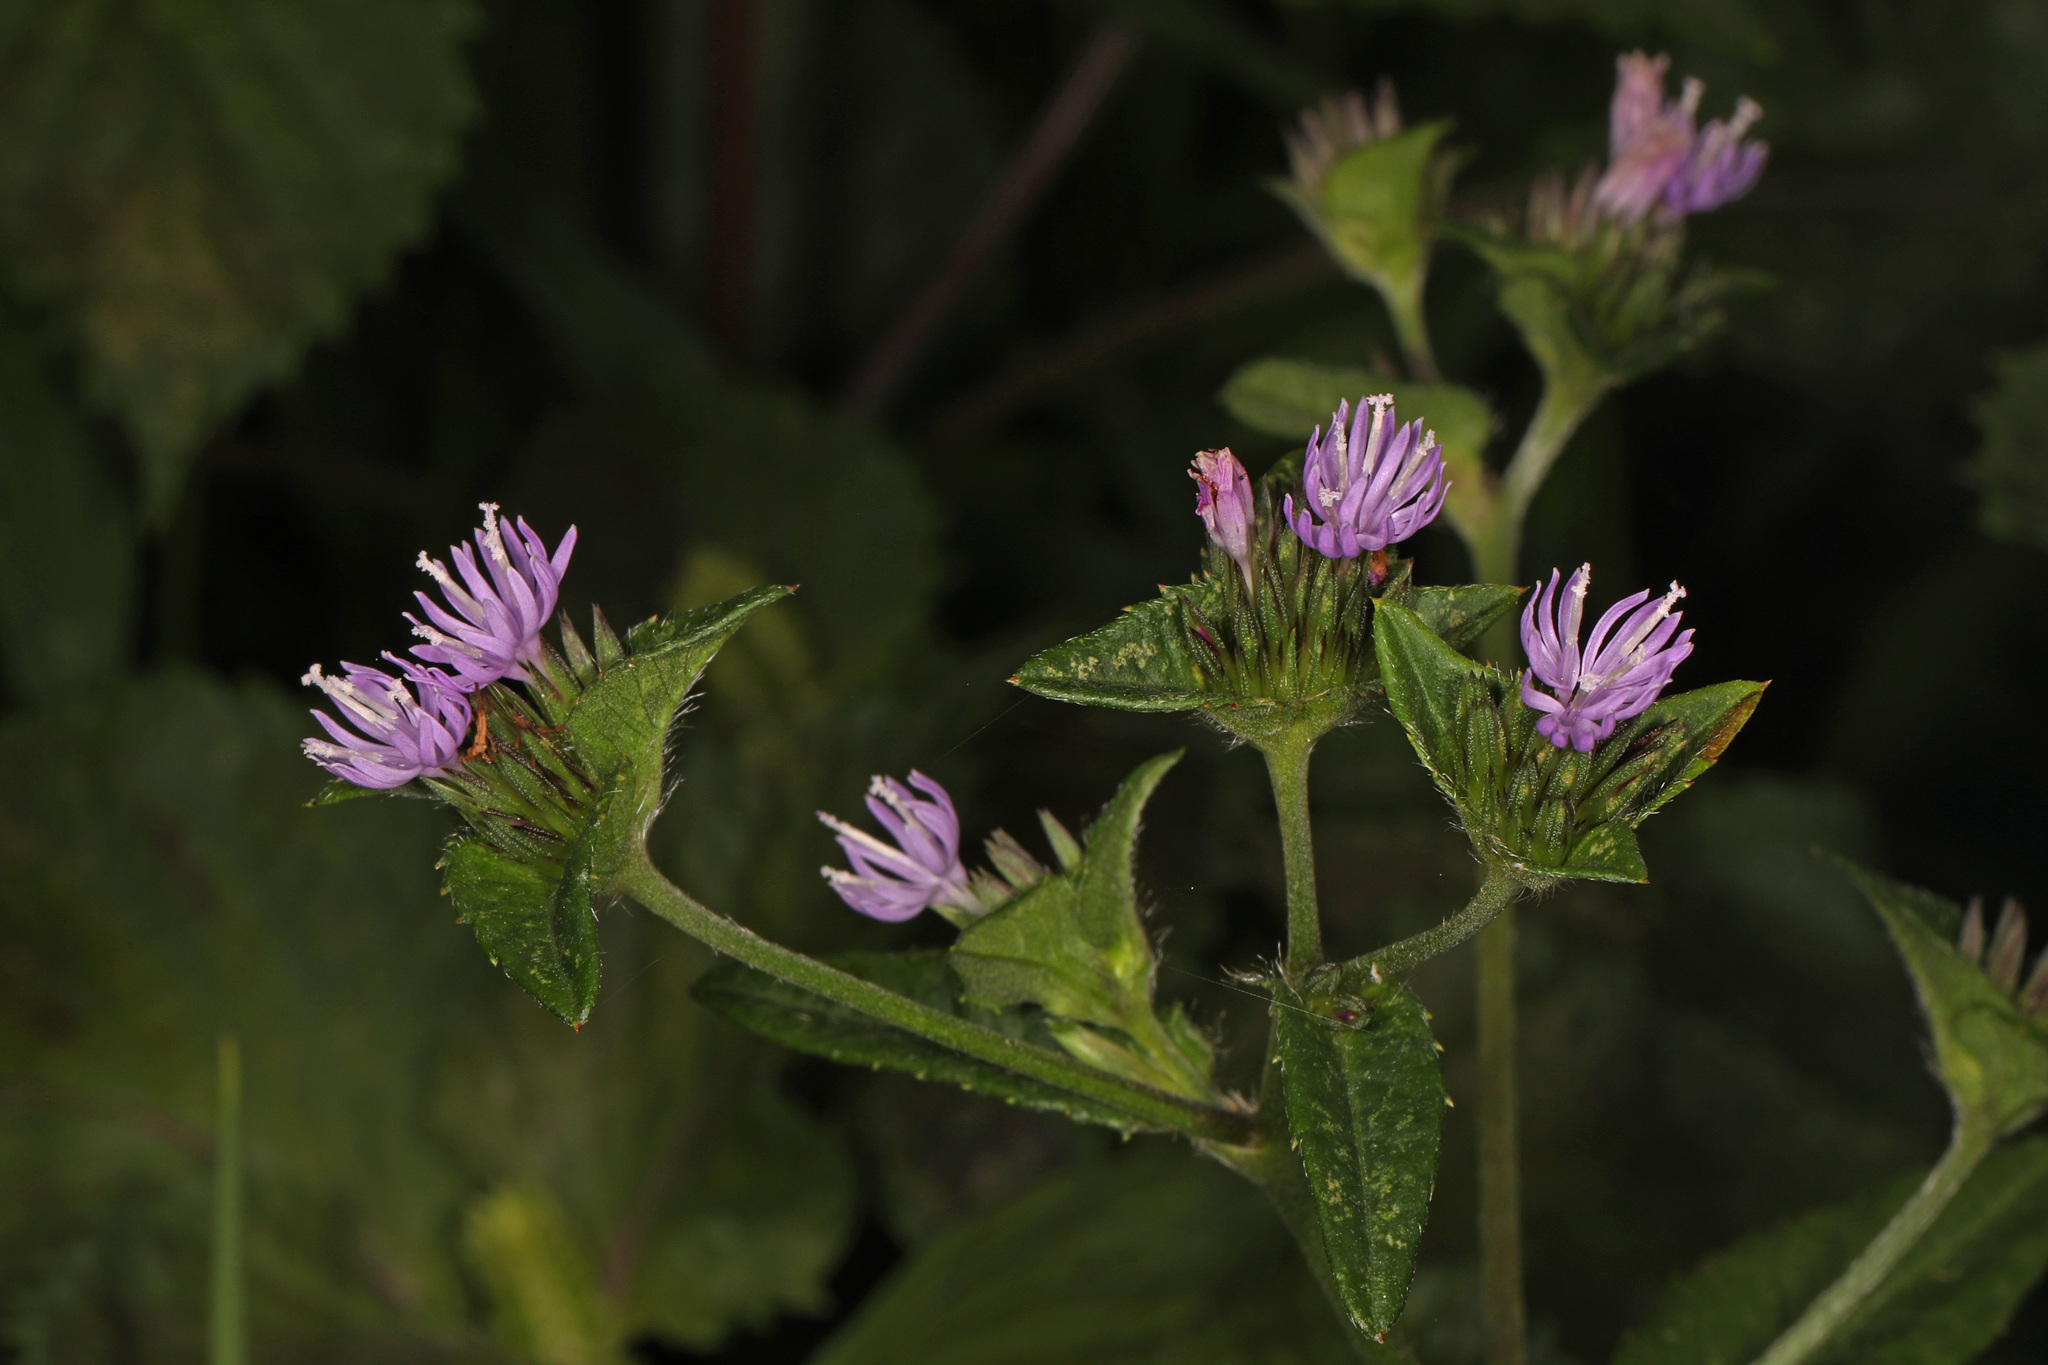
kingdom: Plantae
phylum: Tracheophyta
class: Magnoliopsida
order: Asterales
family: Asteraceae
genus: Elephantopus
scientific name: Elephantopus carolinianus
